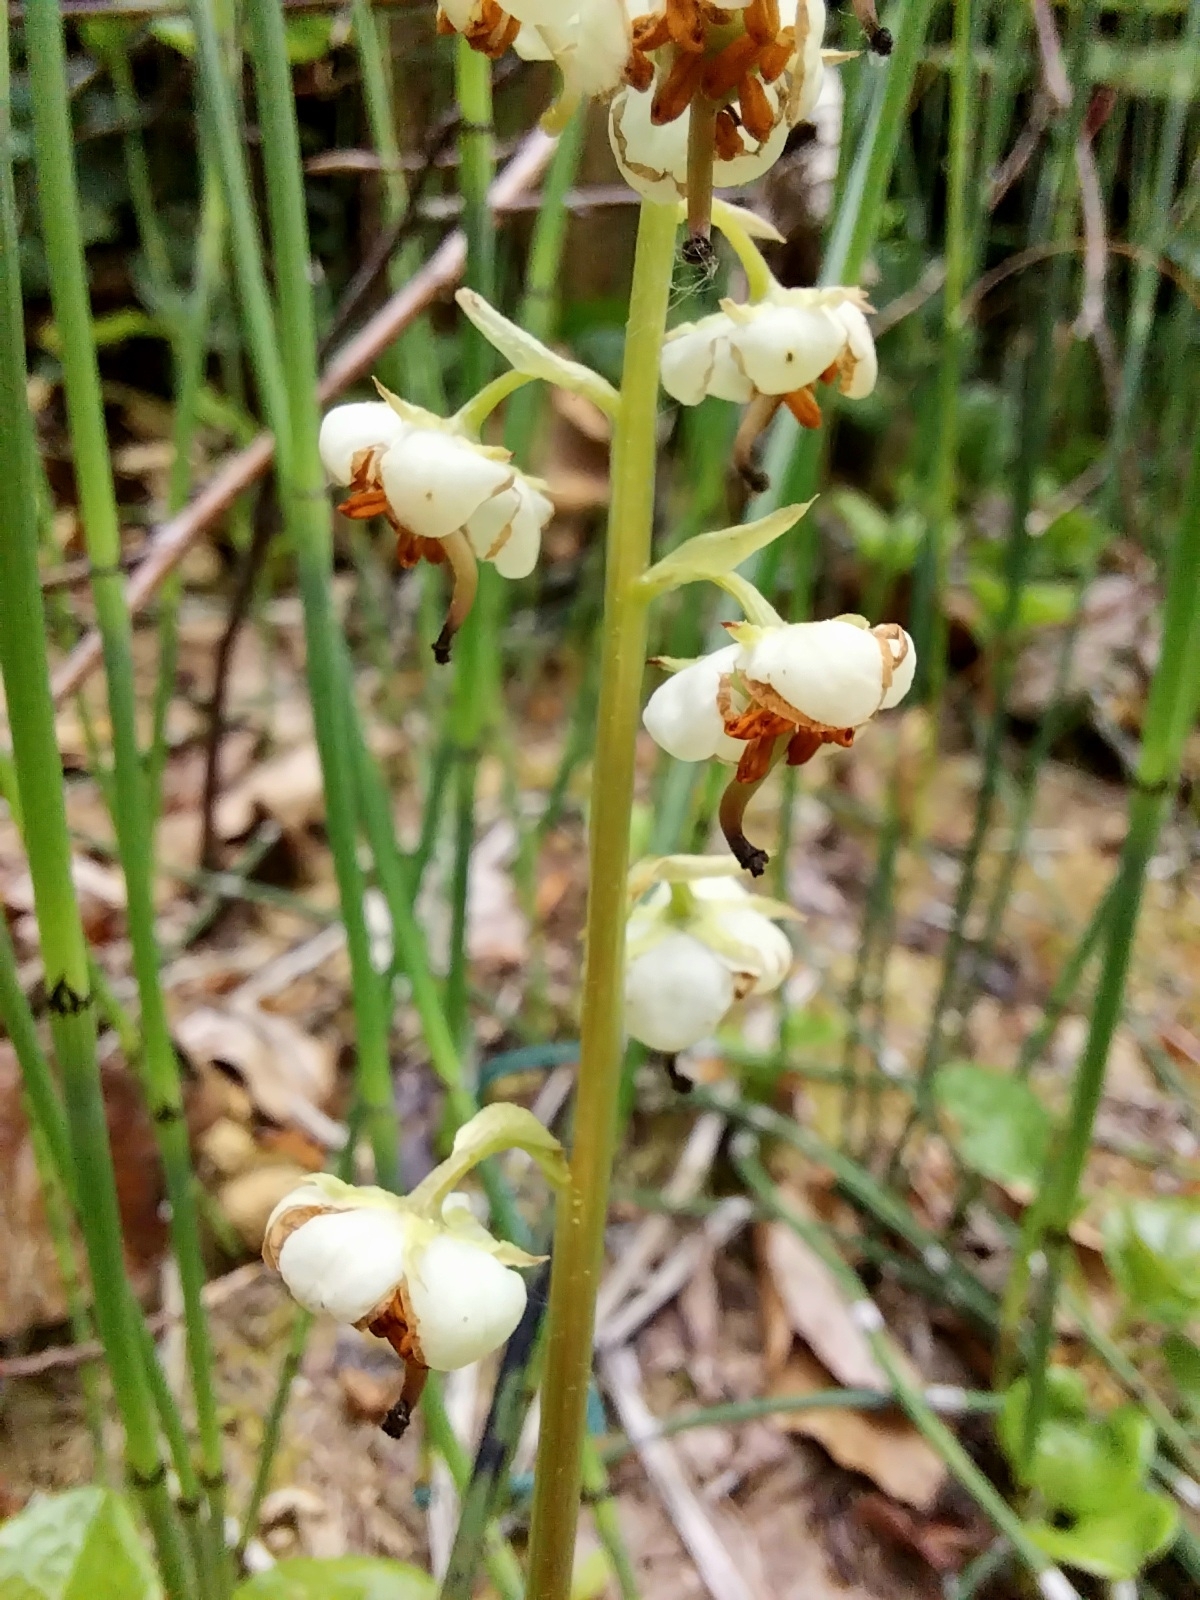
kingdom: Plantae
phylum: Tracheophyta
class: Magnoliopsida
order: Ericales
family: Ericaceae
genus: Pyrola
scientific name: Pyrola rotundifolia
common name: Round-leaved wintergreen
